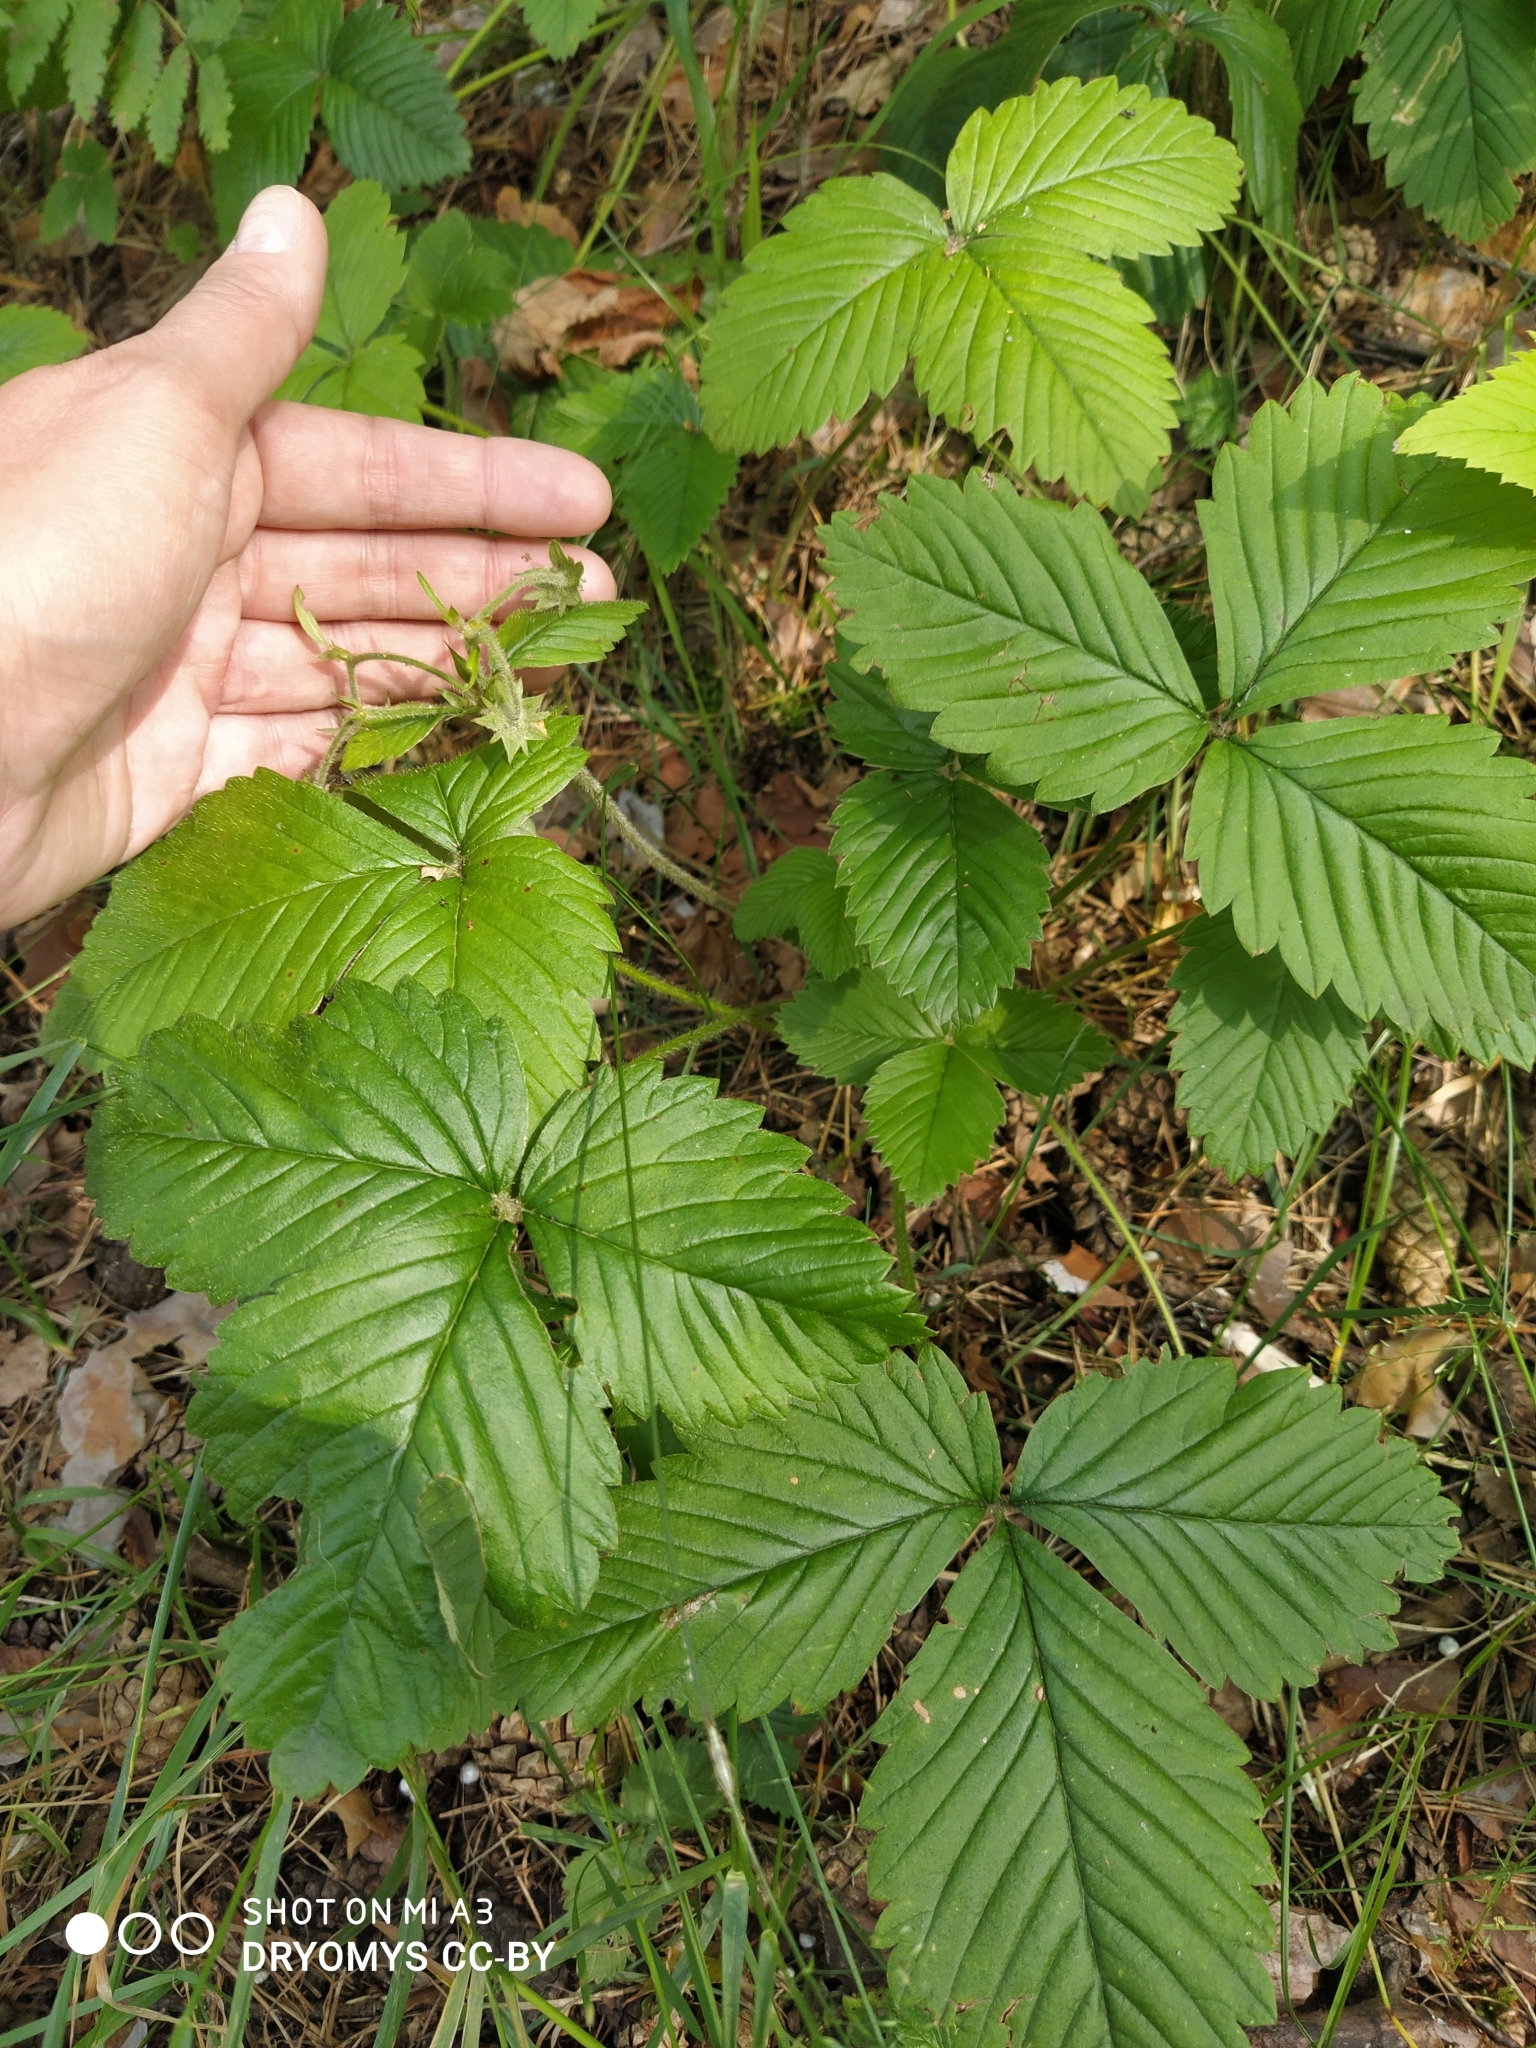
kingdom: Plantae
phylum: Tracheophyta
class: Magnoliopsida
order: Rosales
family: Rosaceae
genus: Fragaria
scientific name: Fragaria moschata
